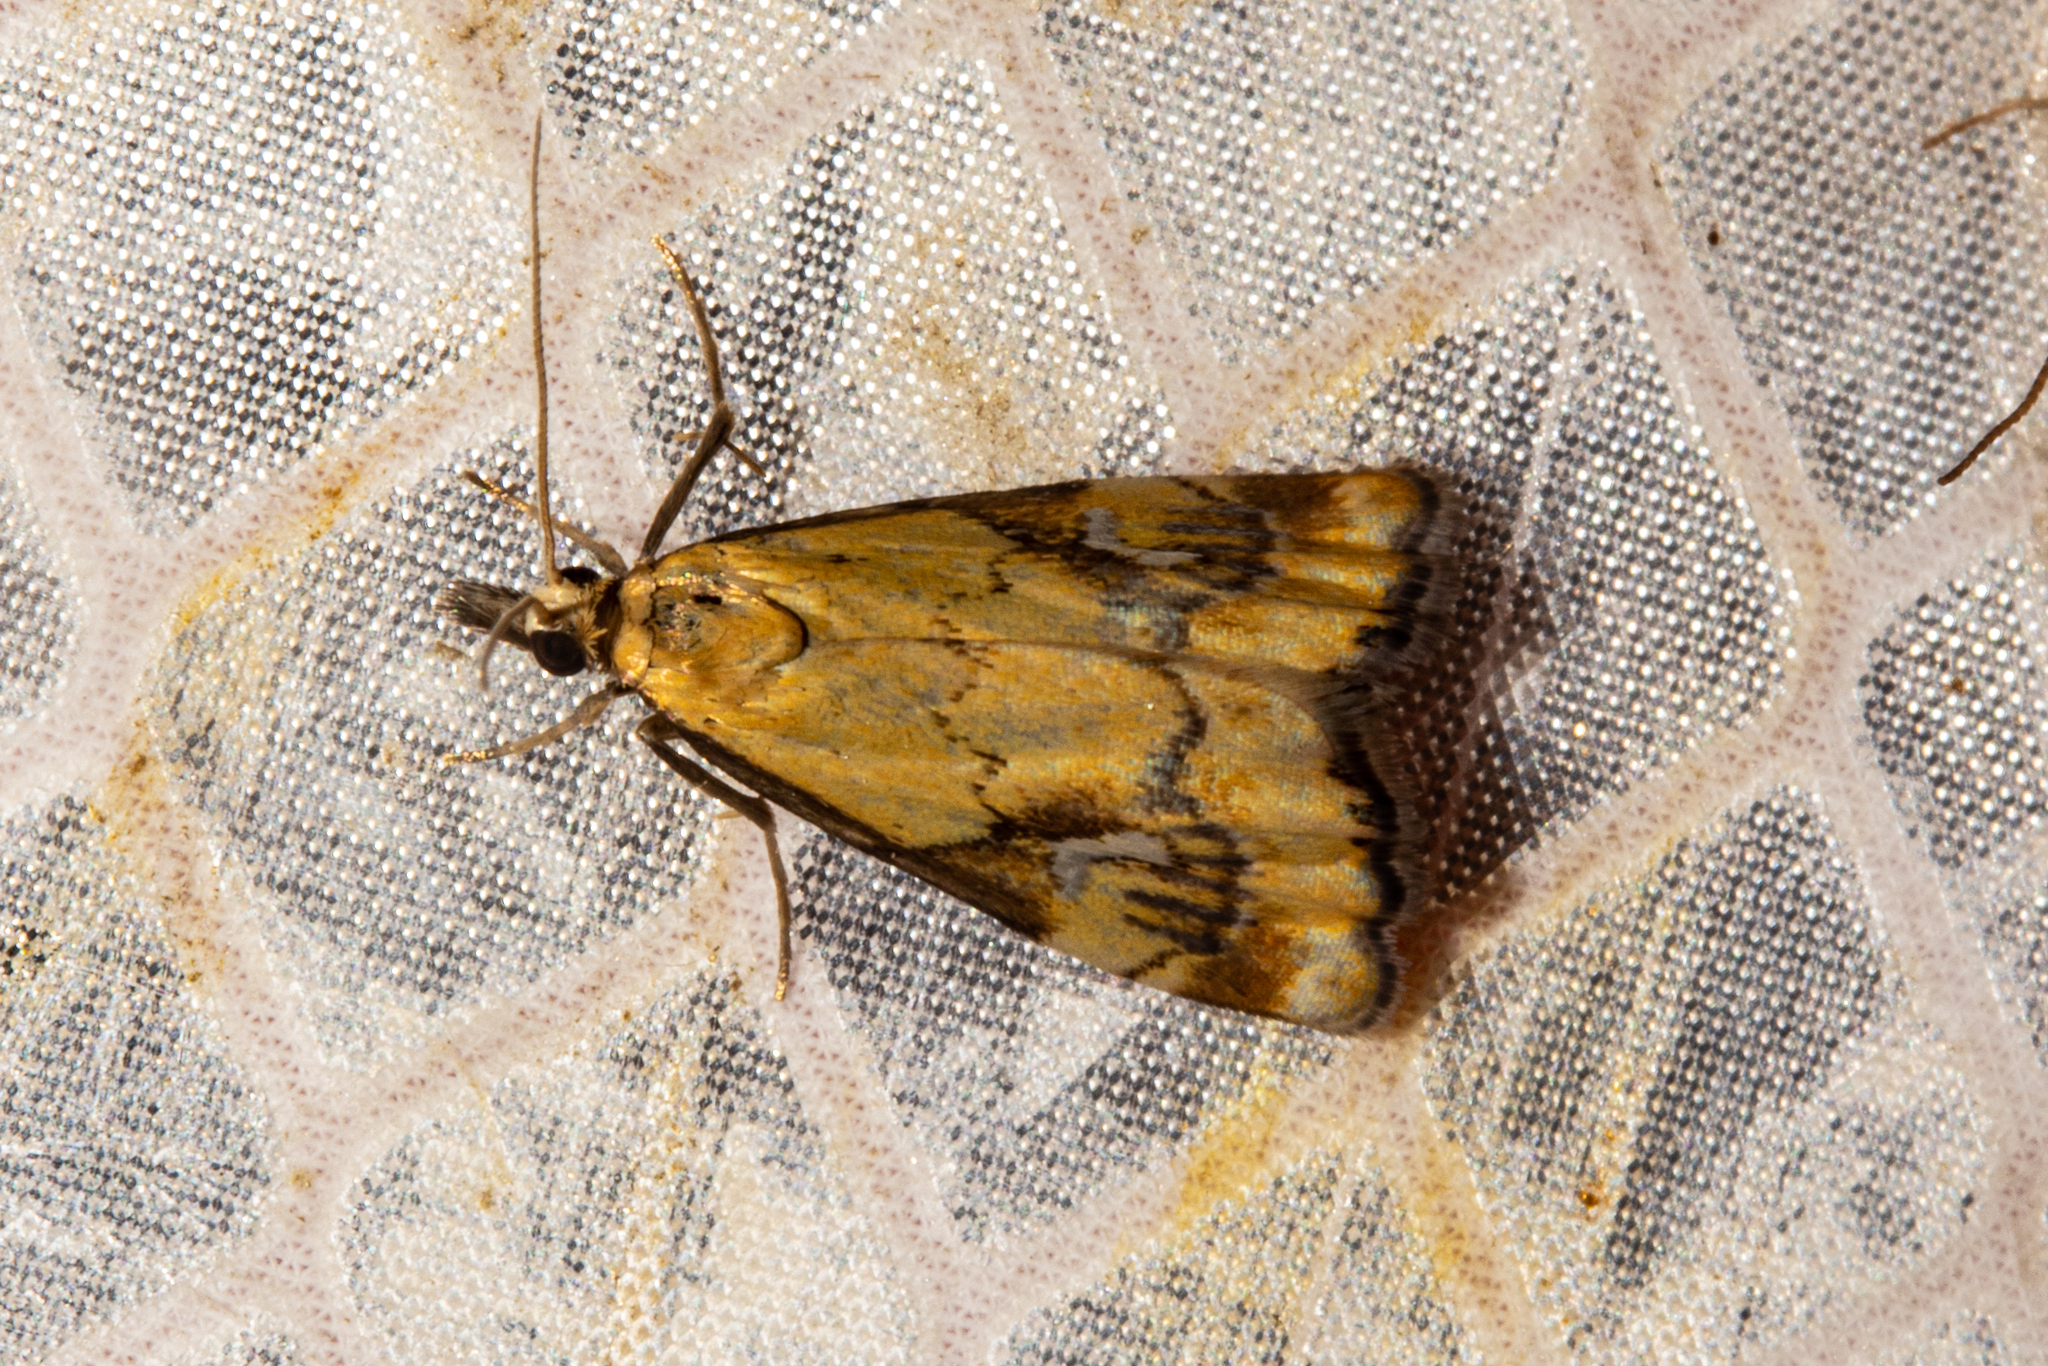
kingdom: Animalia
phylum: Arthropoda
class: Insecta
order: Lepidoptera
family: Crambidae
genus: Glaucocharis
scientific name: Glaucocharis lepidella
